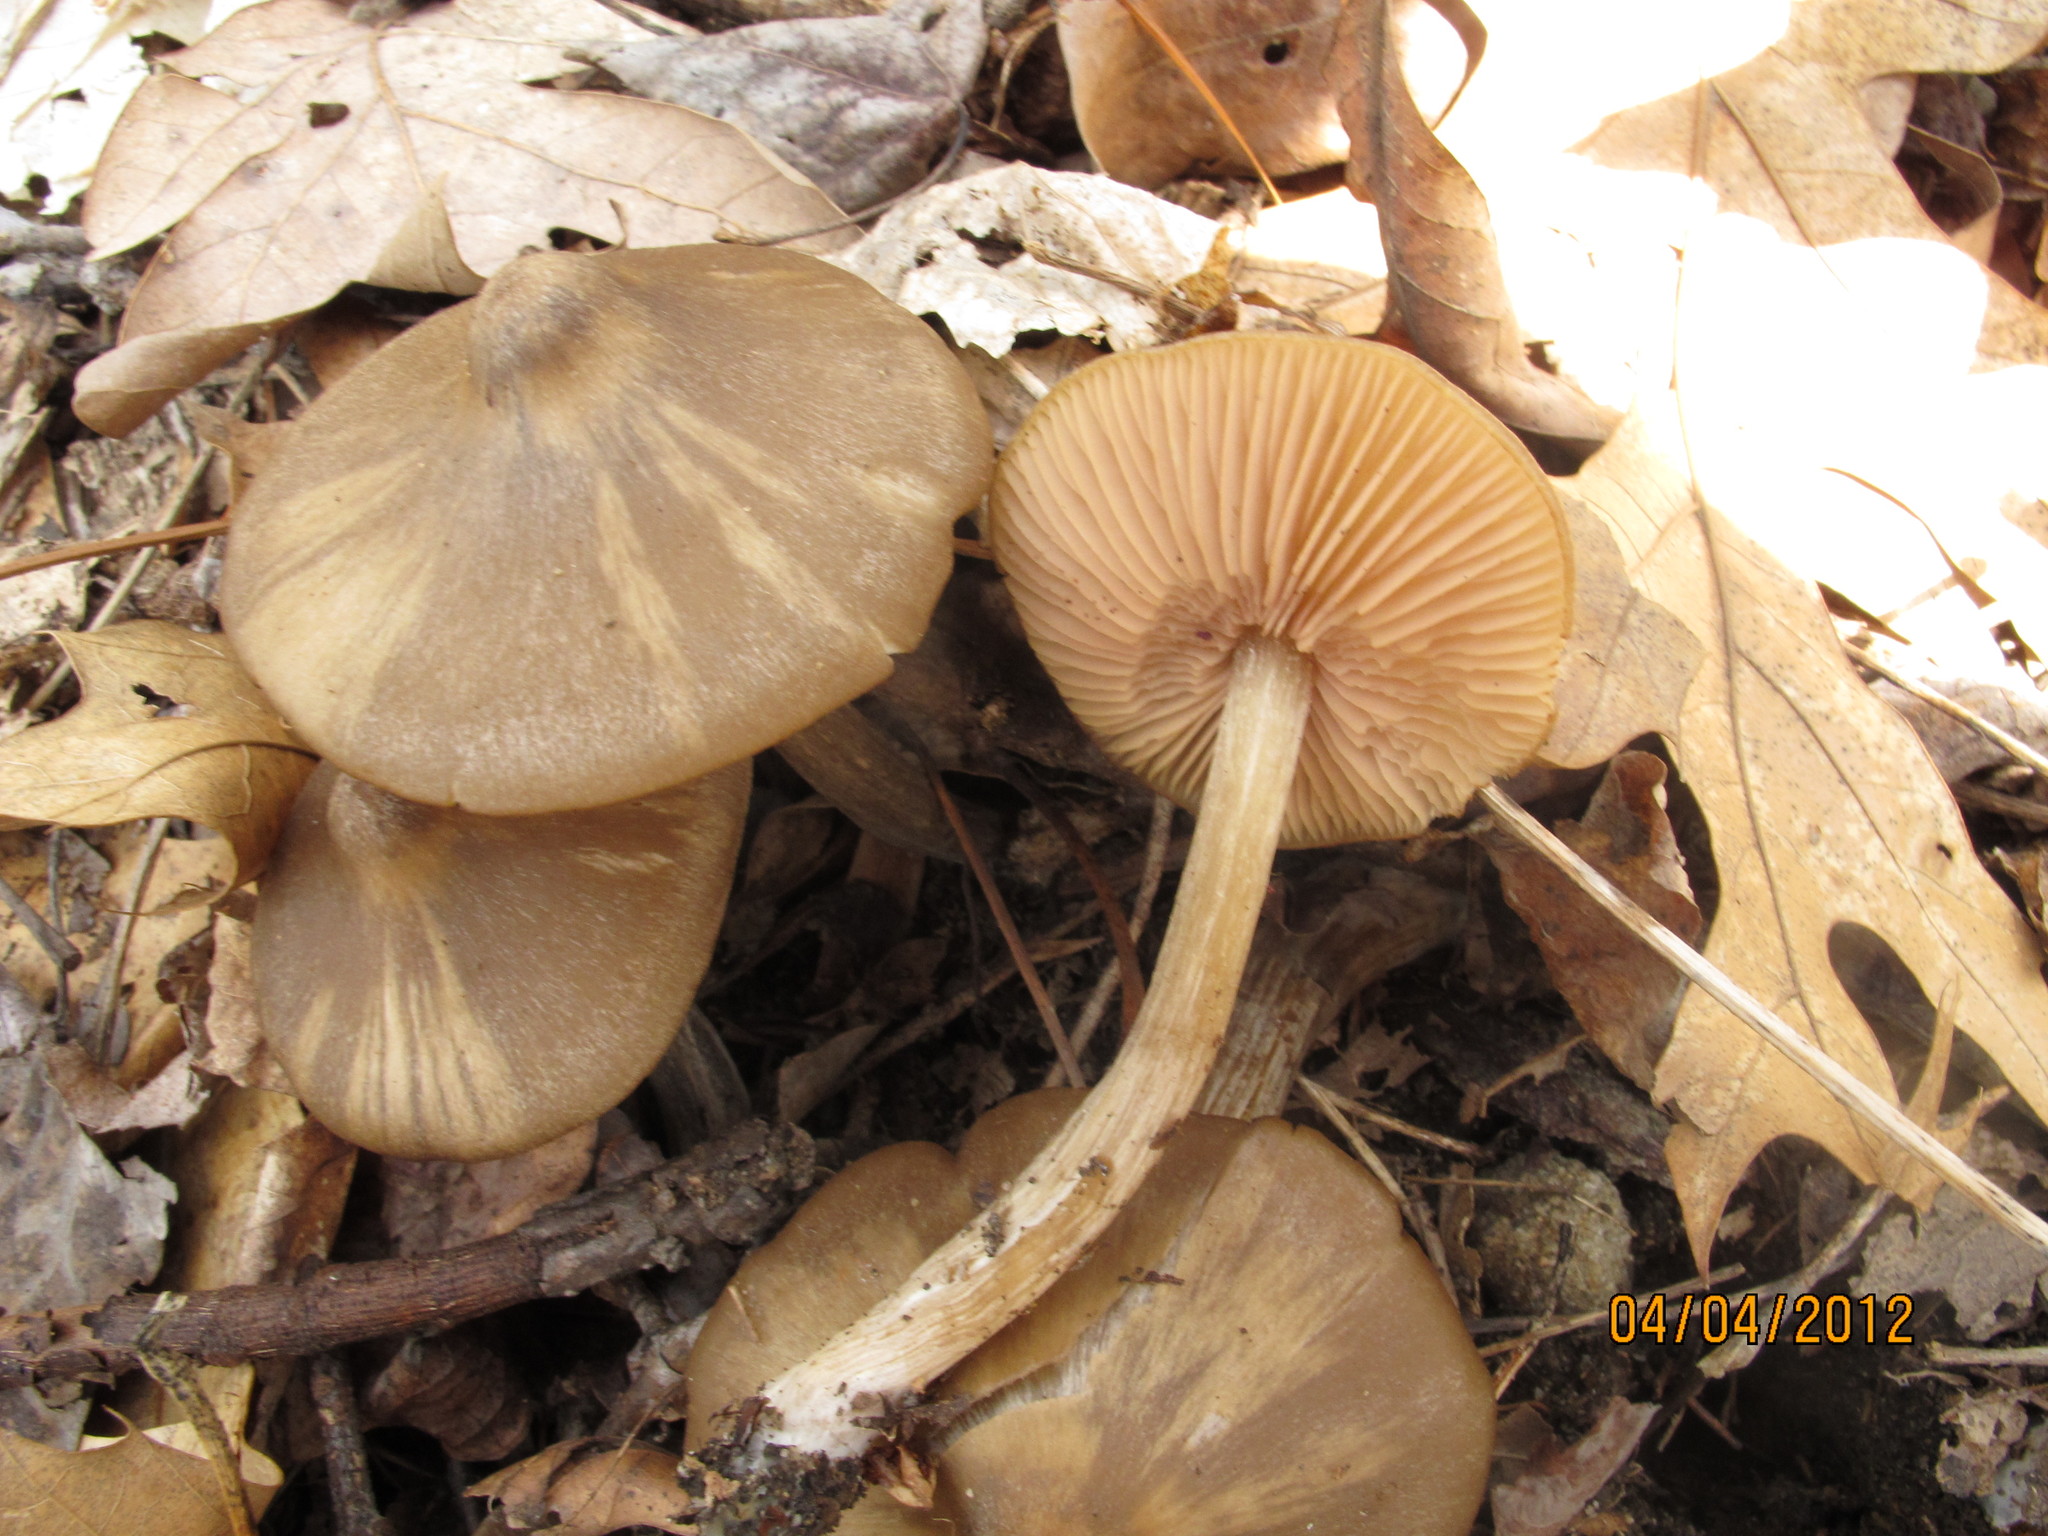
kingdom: Fungi
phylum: Basidiomycota
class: Agaricomycetes
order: Agaricales
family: Entolomataceae
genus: Entoloma
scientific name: Entoloma vernum
